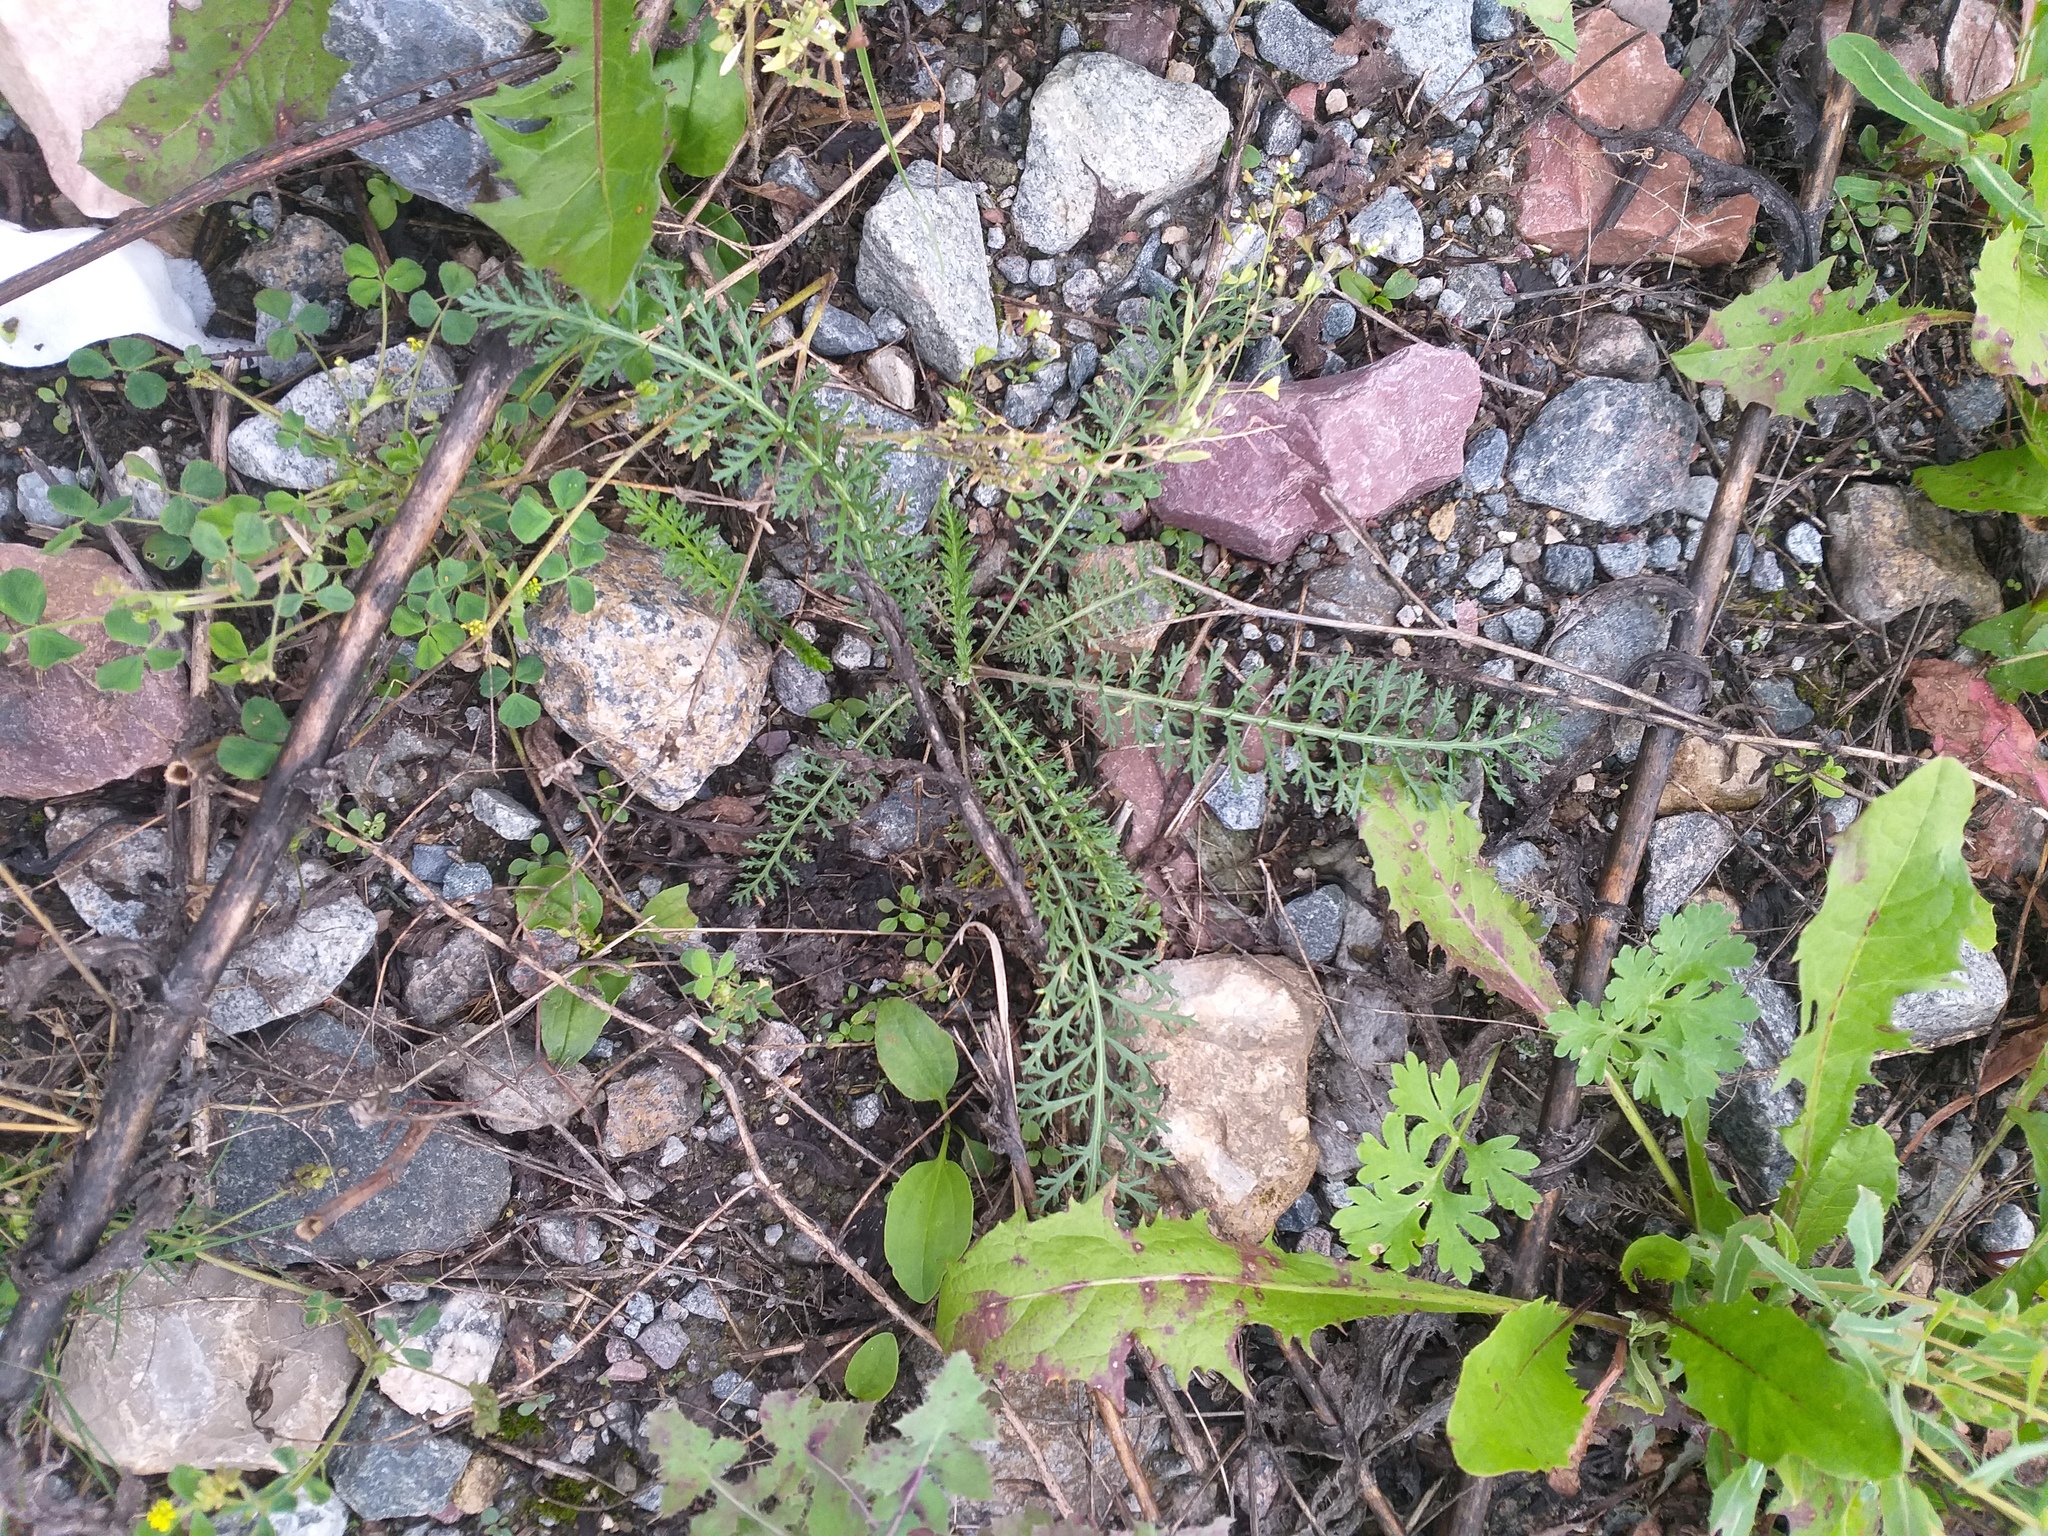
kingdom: Plantae
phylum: Tracheophyta
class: Magnoliopsida
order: Asterales
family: Asteraceae
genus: Achillea
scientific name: Achillea millefolium
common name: Yarrow
